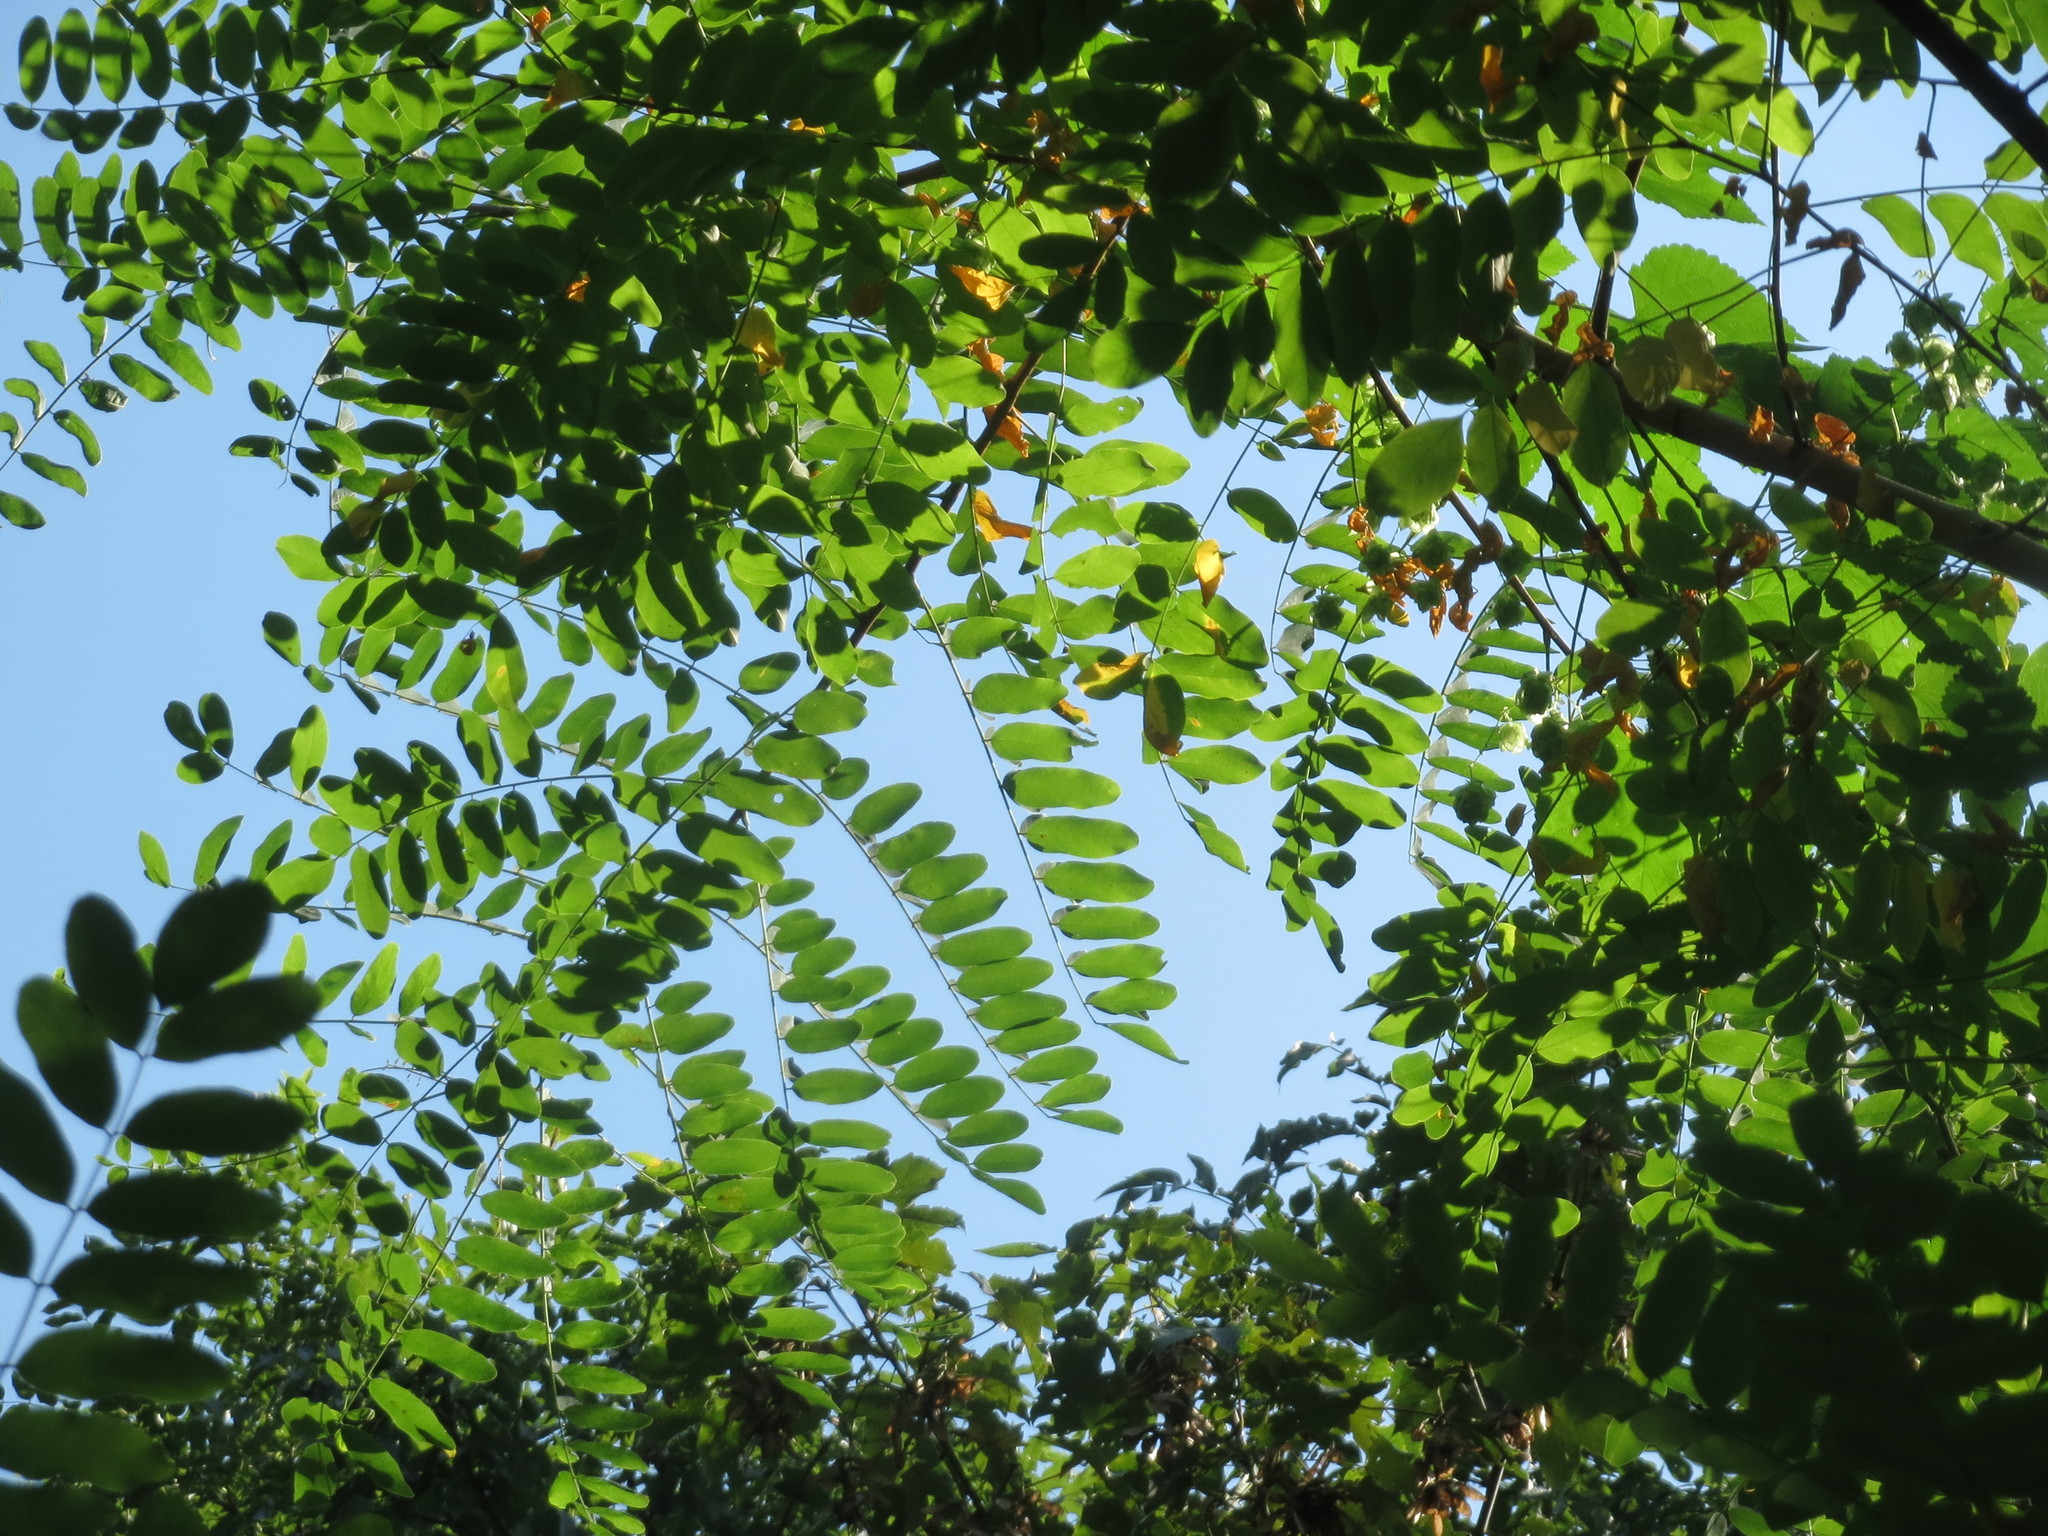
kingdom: Plantae
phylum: Tracheophyta
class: Magnoliopsida
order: Fabales
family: Fabaceae
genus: Robinia
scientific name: Robinia pseudoacacia
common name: Black locust
